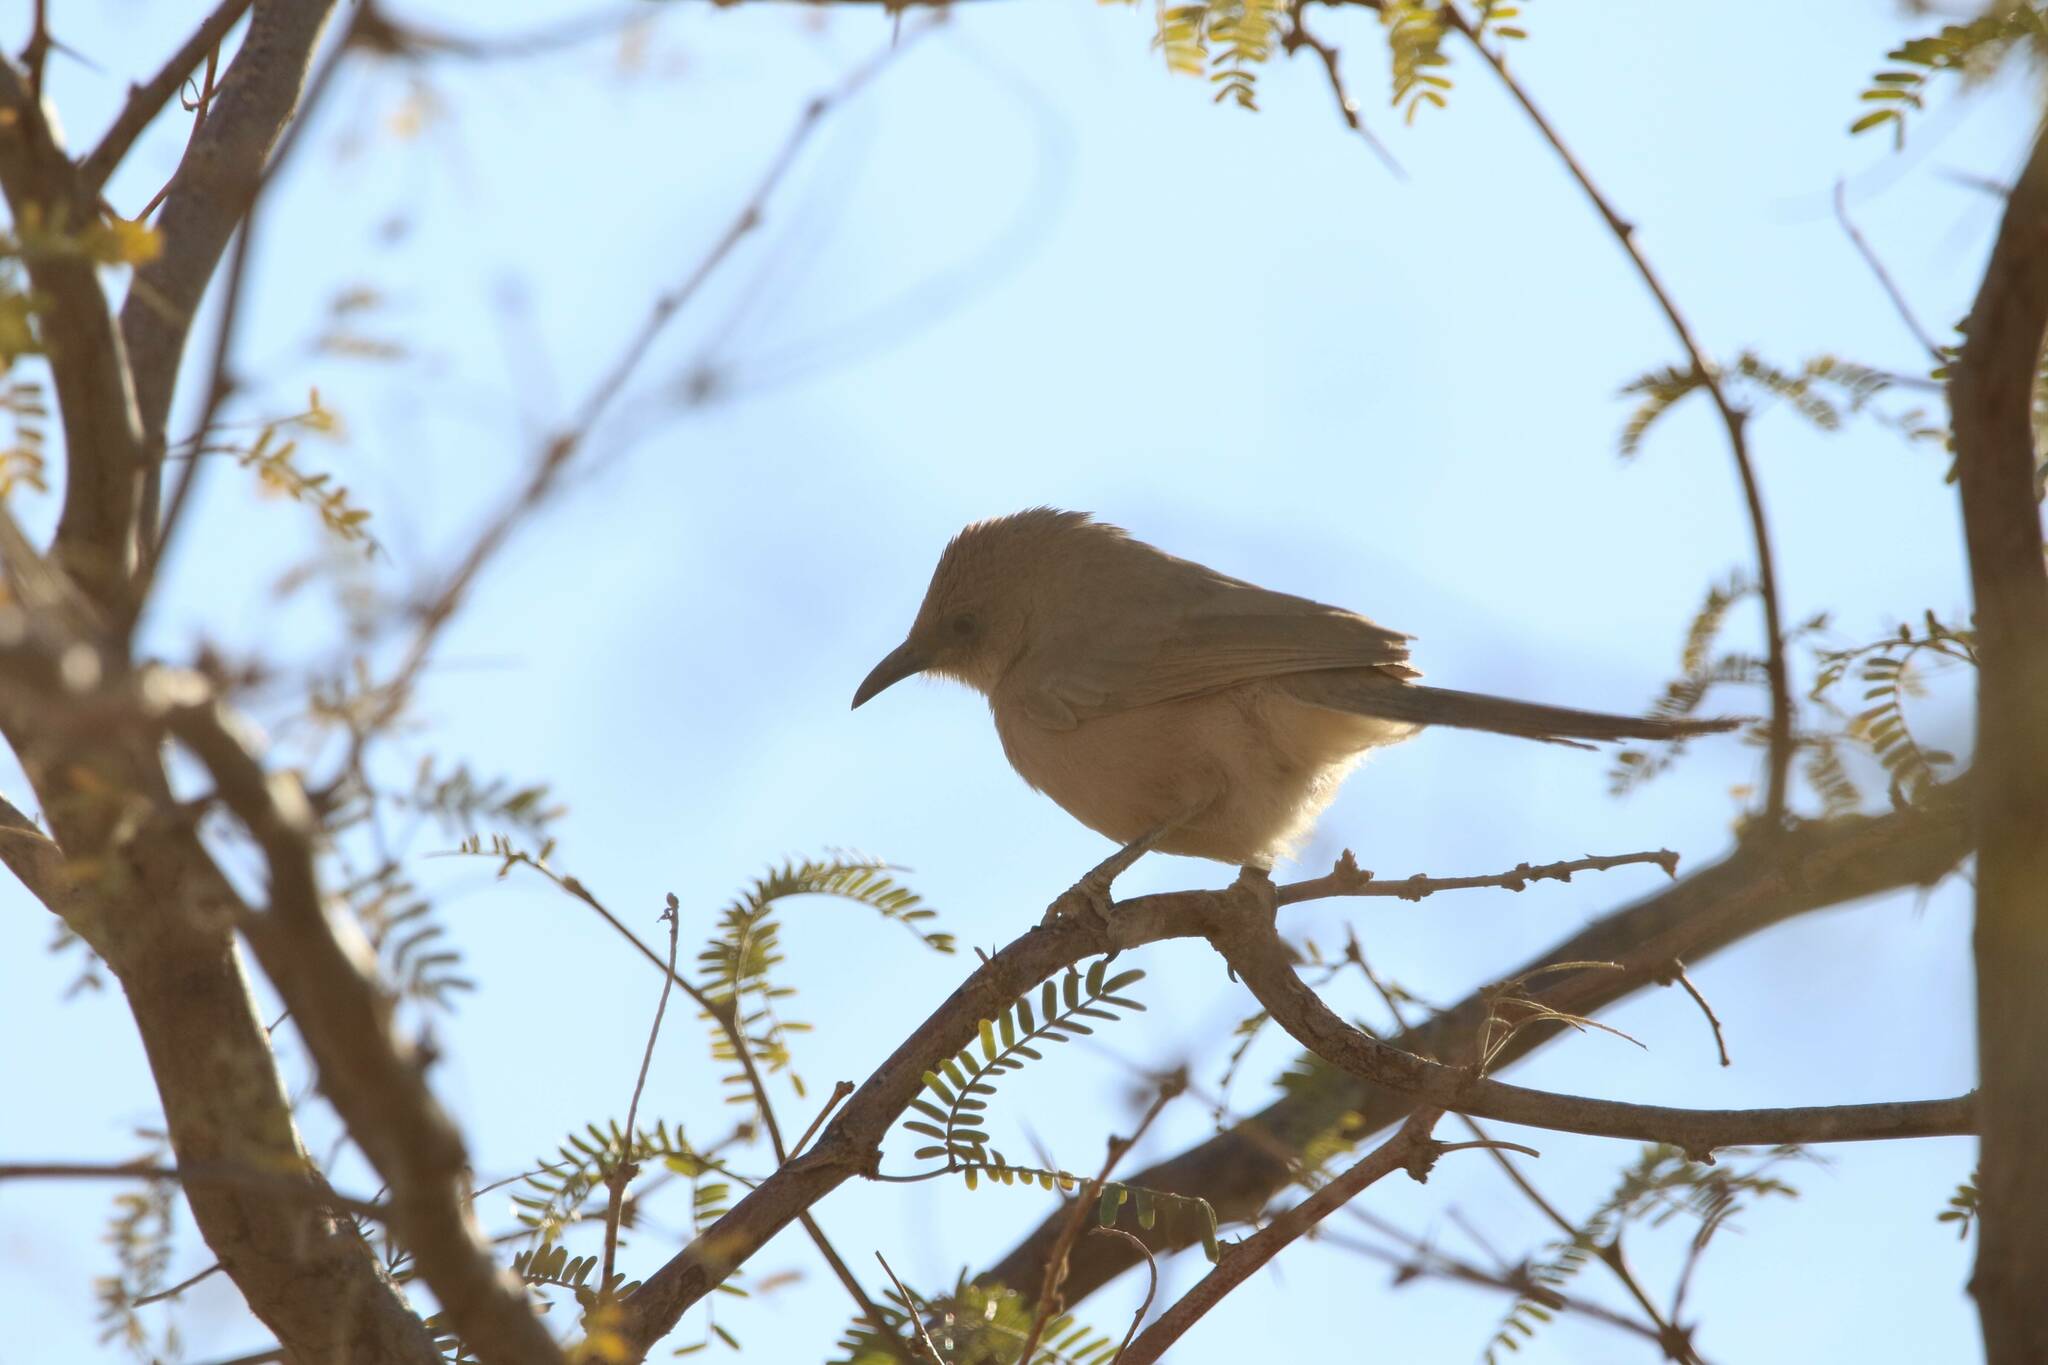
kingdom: Animalia
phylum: Chordata
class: Aves
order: Passeriformes
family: Leiothrichidae
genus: Turdoides
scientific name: Turdoides fulva
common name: Fulvous babbler
